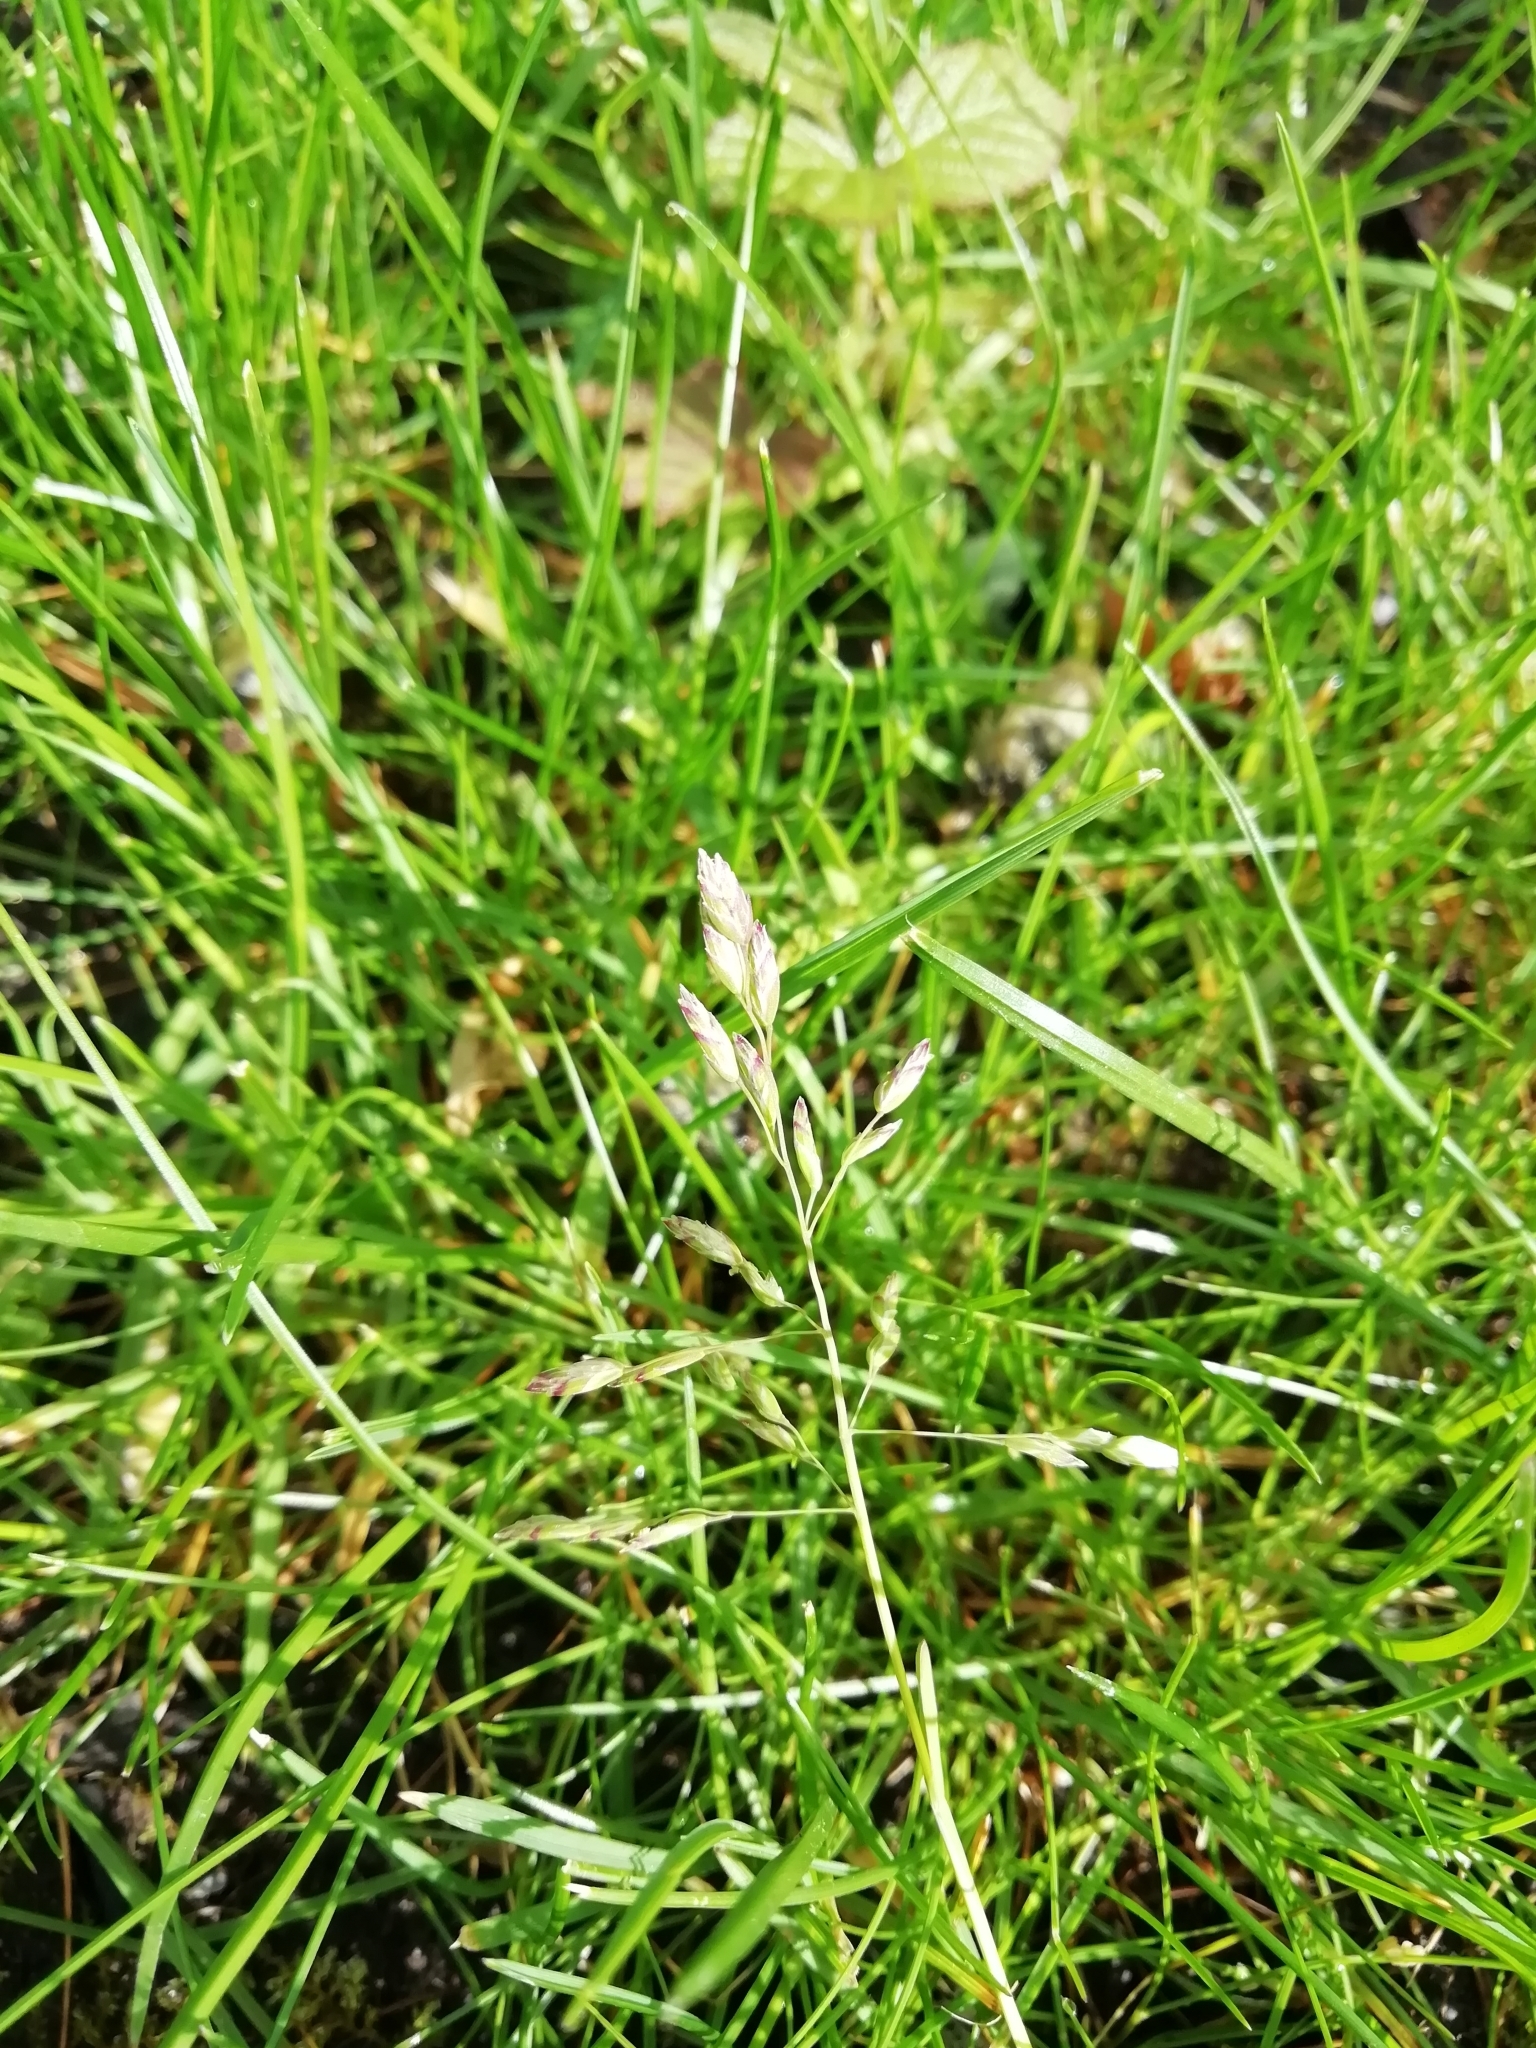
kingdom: Plantae
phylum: Tracheophyta
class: Liliopsida
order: Poales
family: Poaceae
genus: Poa
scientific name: Poa annua
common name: Annual bluegrass
